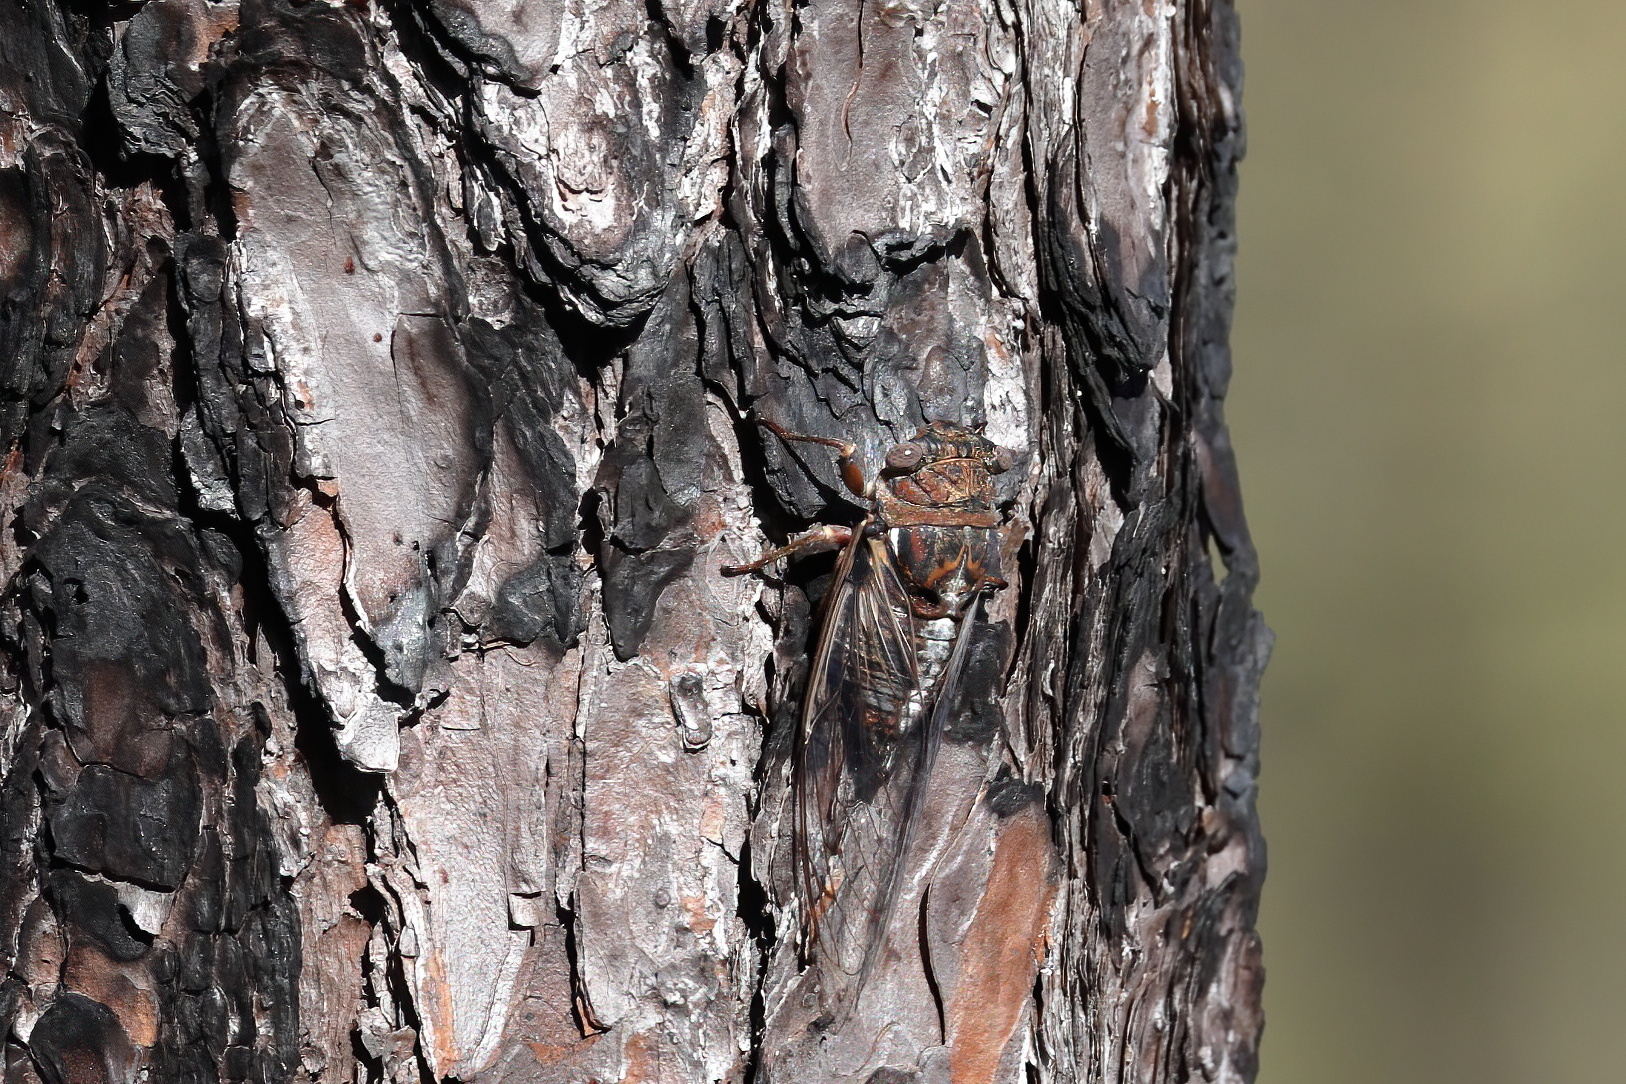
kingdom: Animalia
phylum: Arthropoda
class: Insecta
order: Hemiptera
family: Cicadidae
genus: Megatibicen
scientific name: Megatibicen figuratus
